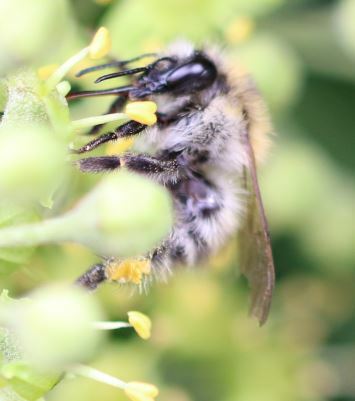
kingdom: Animalia
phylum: Arthropoda
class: Insecta
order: Hymenoptera
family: Apidae
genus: Bombus
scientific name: Bombus pascuorum
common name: Common carder bee
